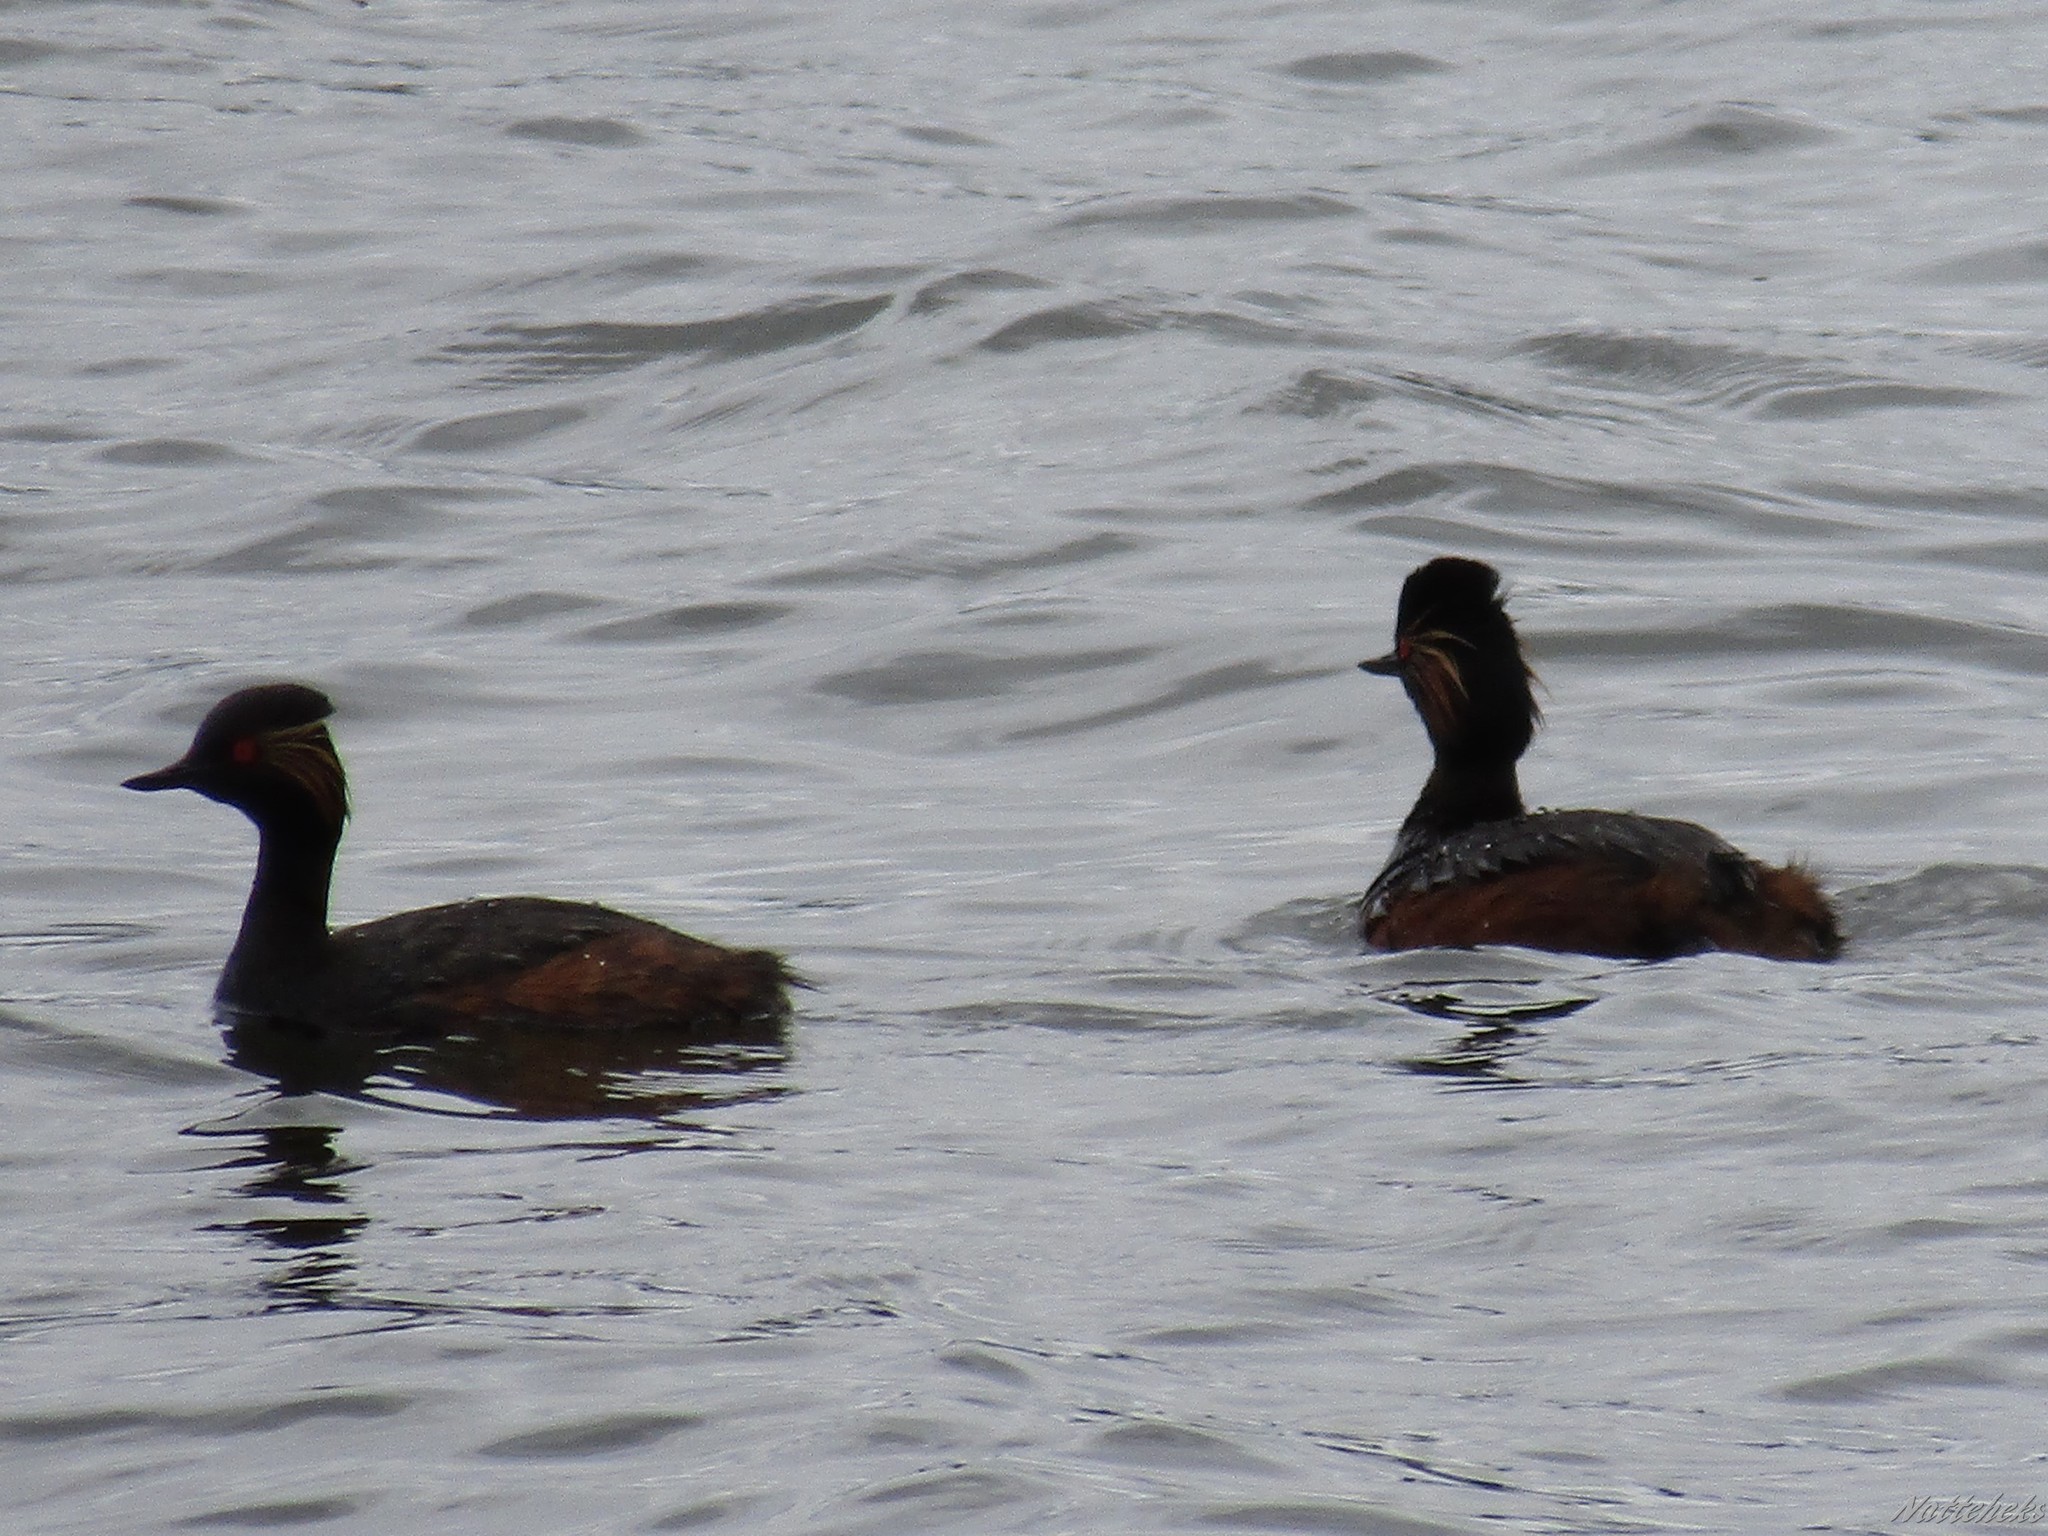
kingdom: Animalia
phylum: Chordata
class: Aves
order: Podicipediformes
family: Podicipedidae
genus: Podiceps
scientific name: Podiceps nigricollis
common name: Black-necked grebe
